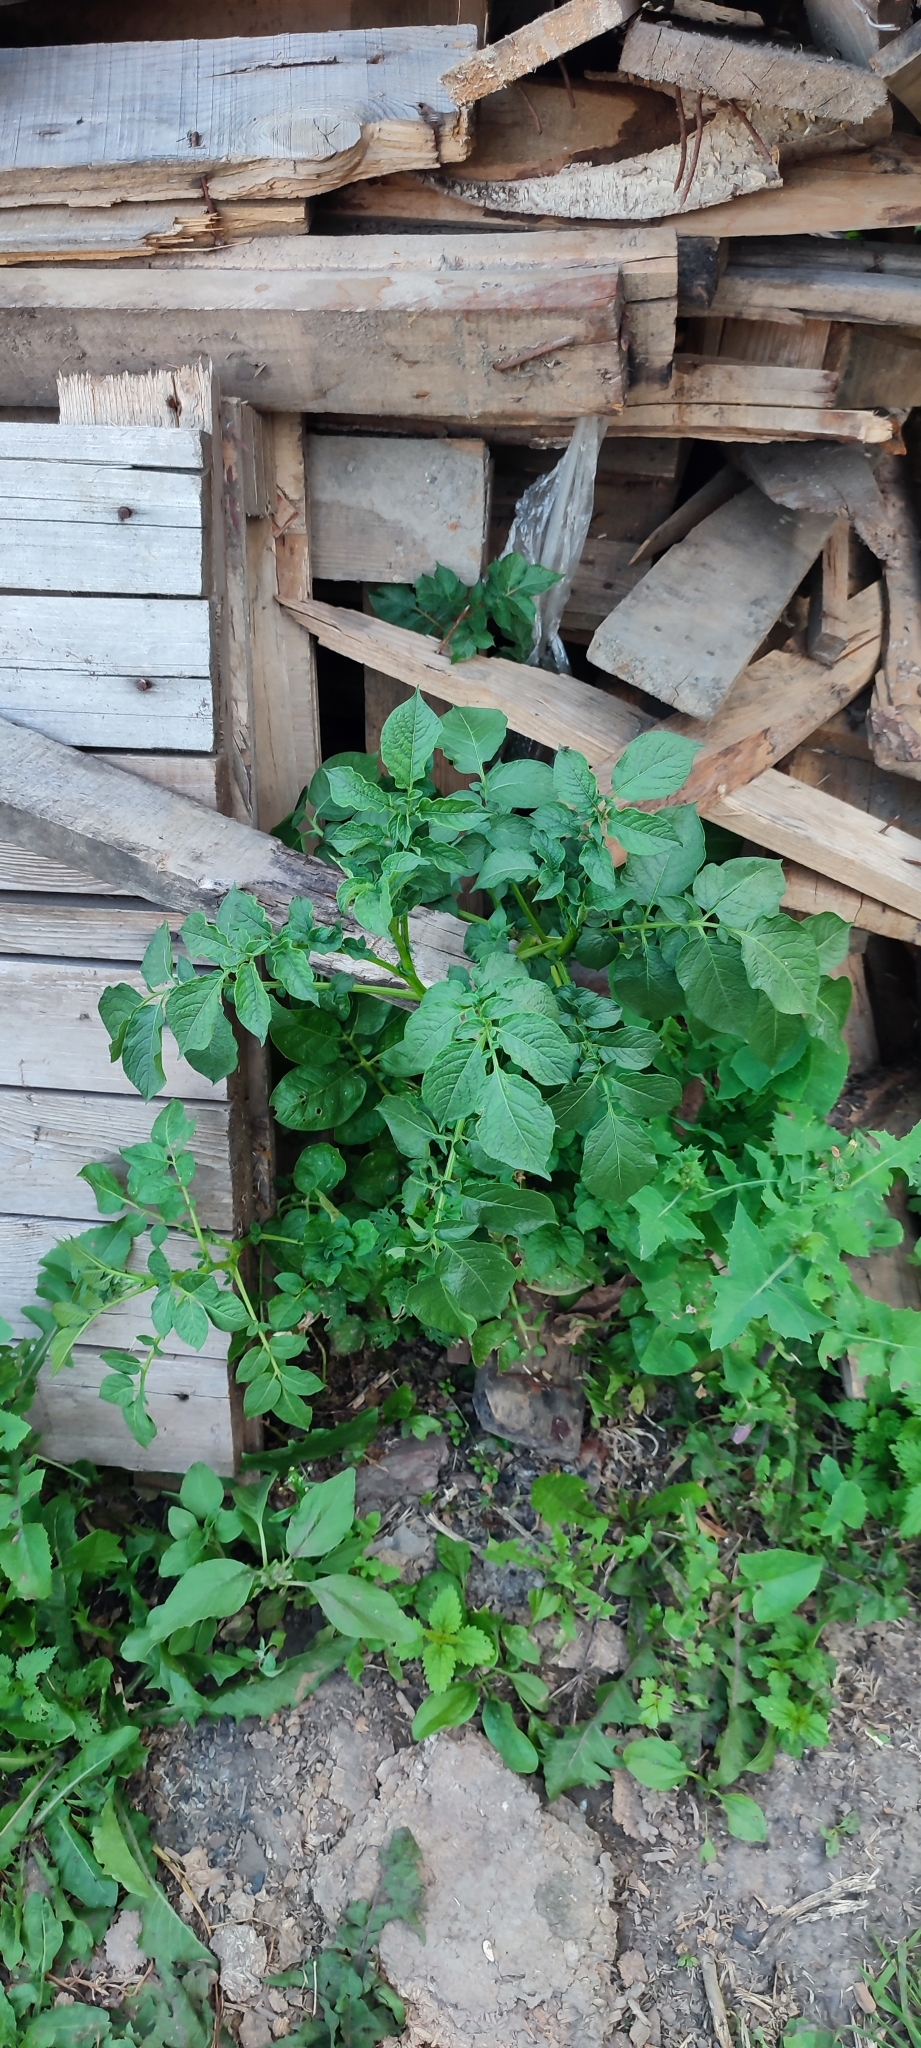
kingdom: Plantae
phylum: Tracheophyta
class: Magnoliopsida
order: Solanales
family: Solanaceae
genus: Solanum
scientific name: Solanum tuberosum
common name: Potato
